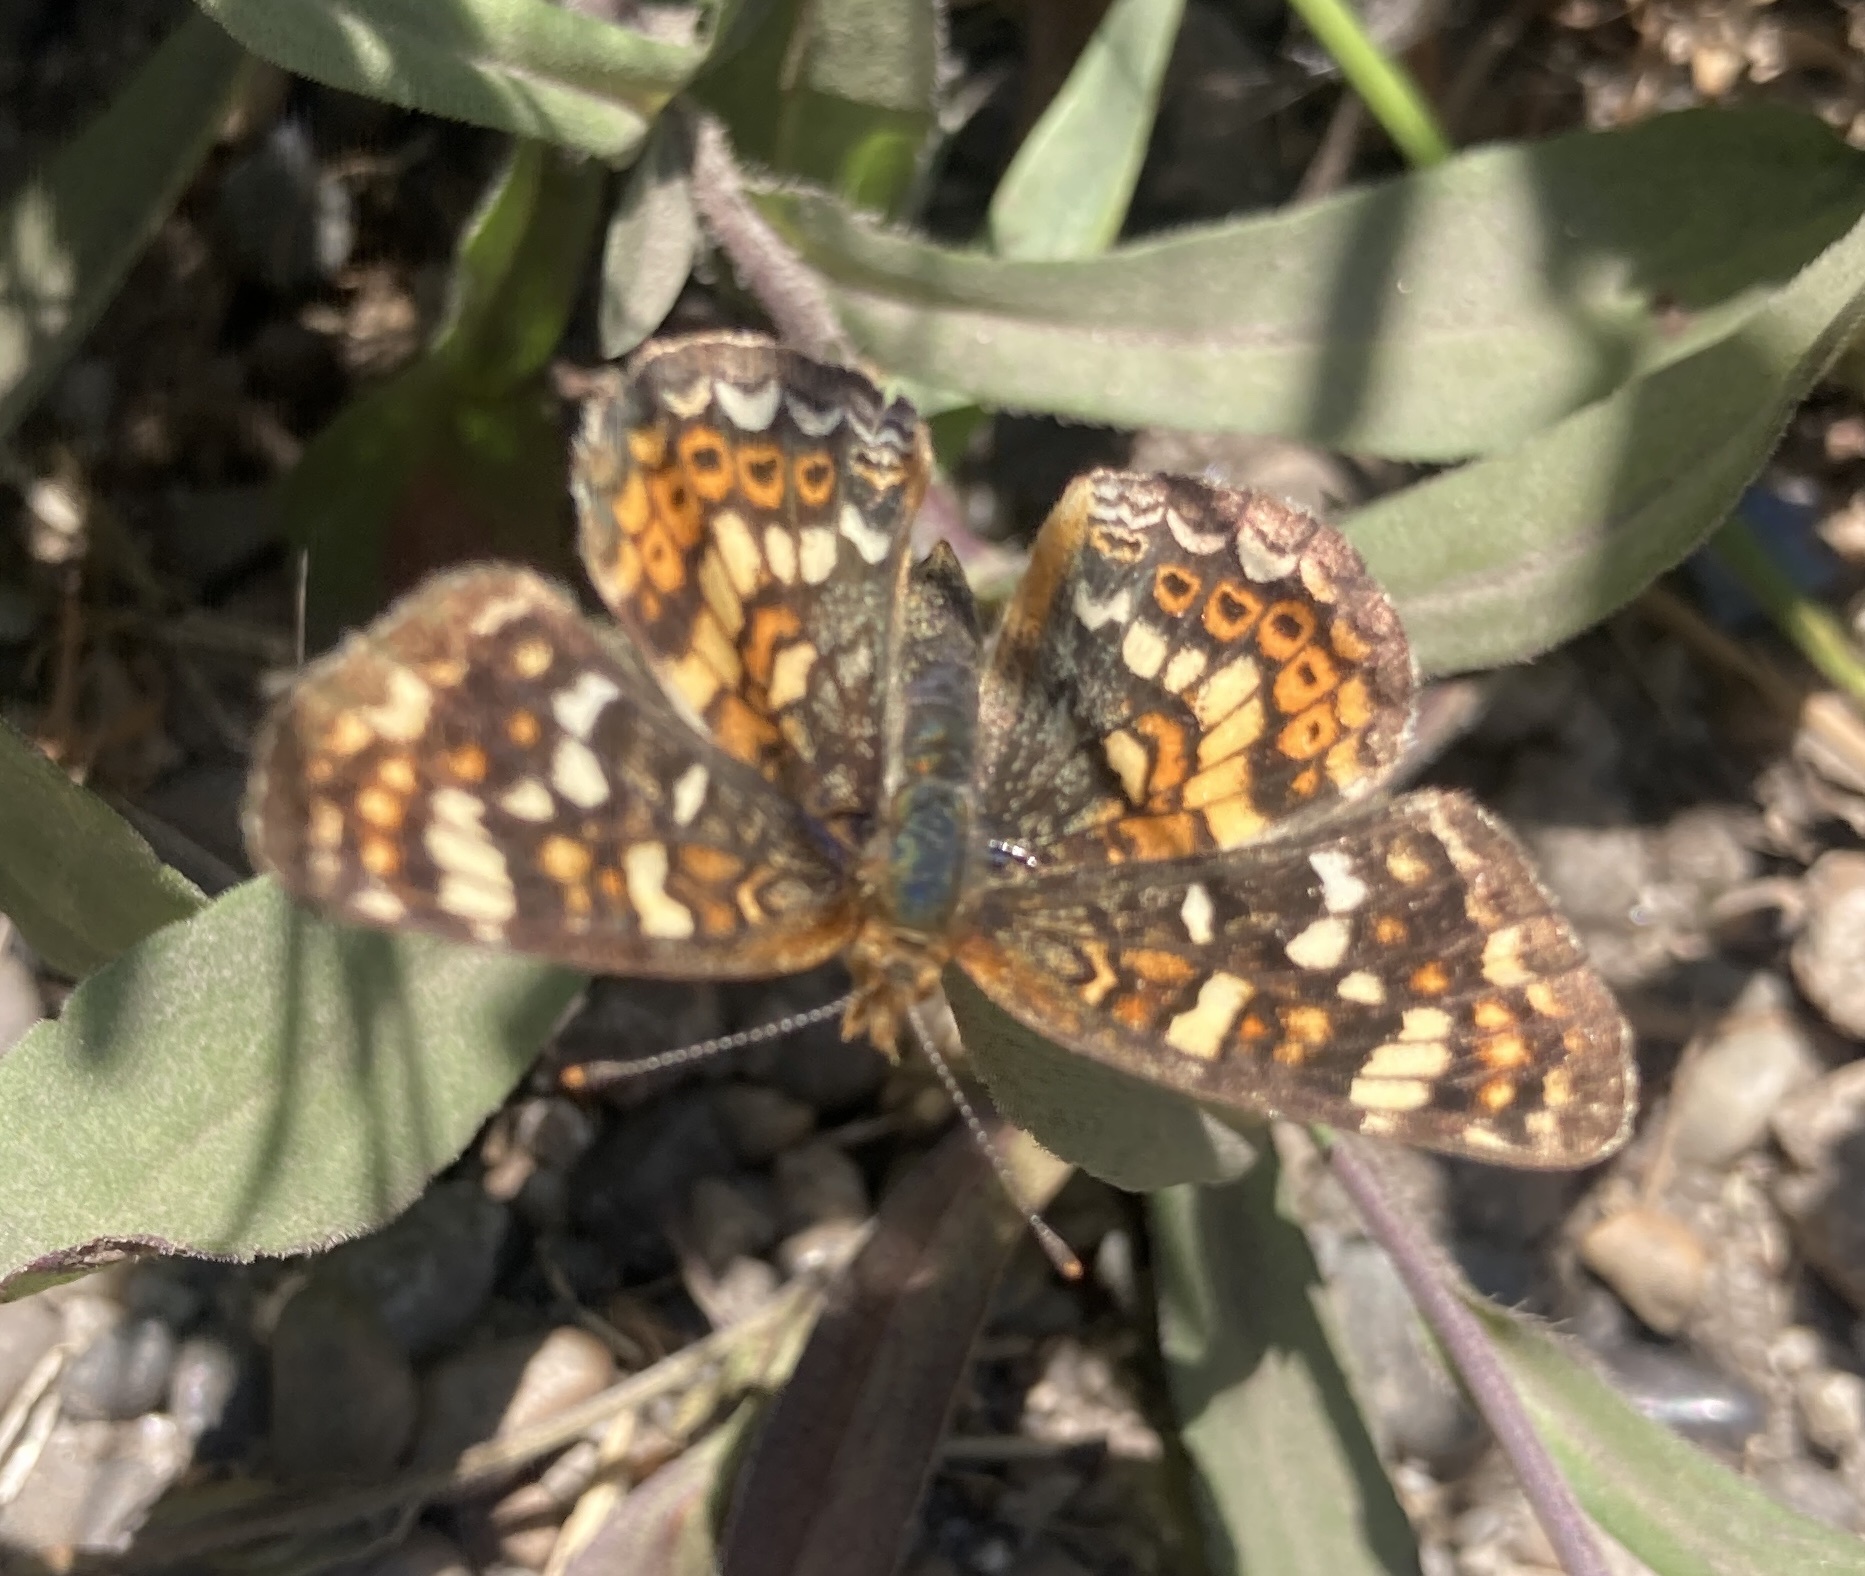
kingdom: Animalia
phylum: Arthropoda
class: Insecta
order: Lepidoptera
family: Nymphalidae
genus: Phyciodes
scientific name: Phyciodes tharos
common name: Pearl crescent
